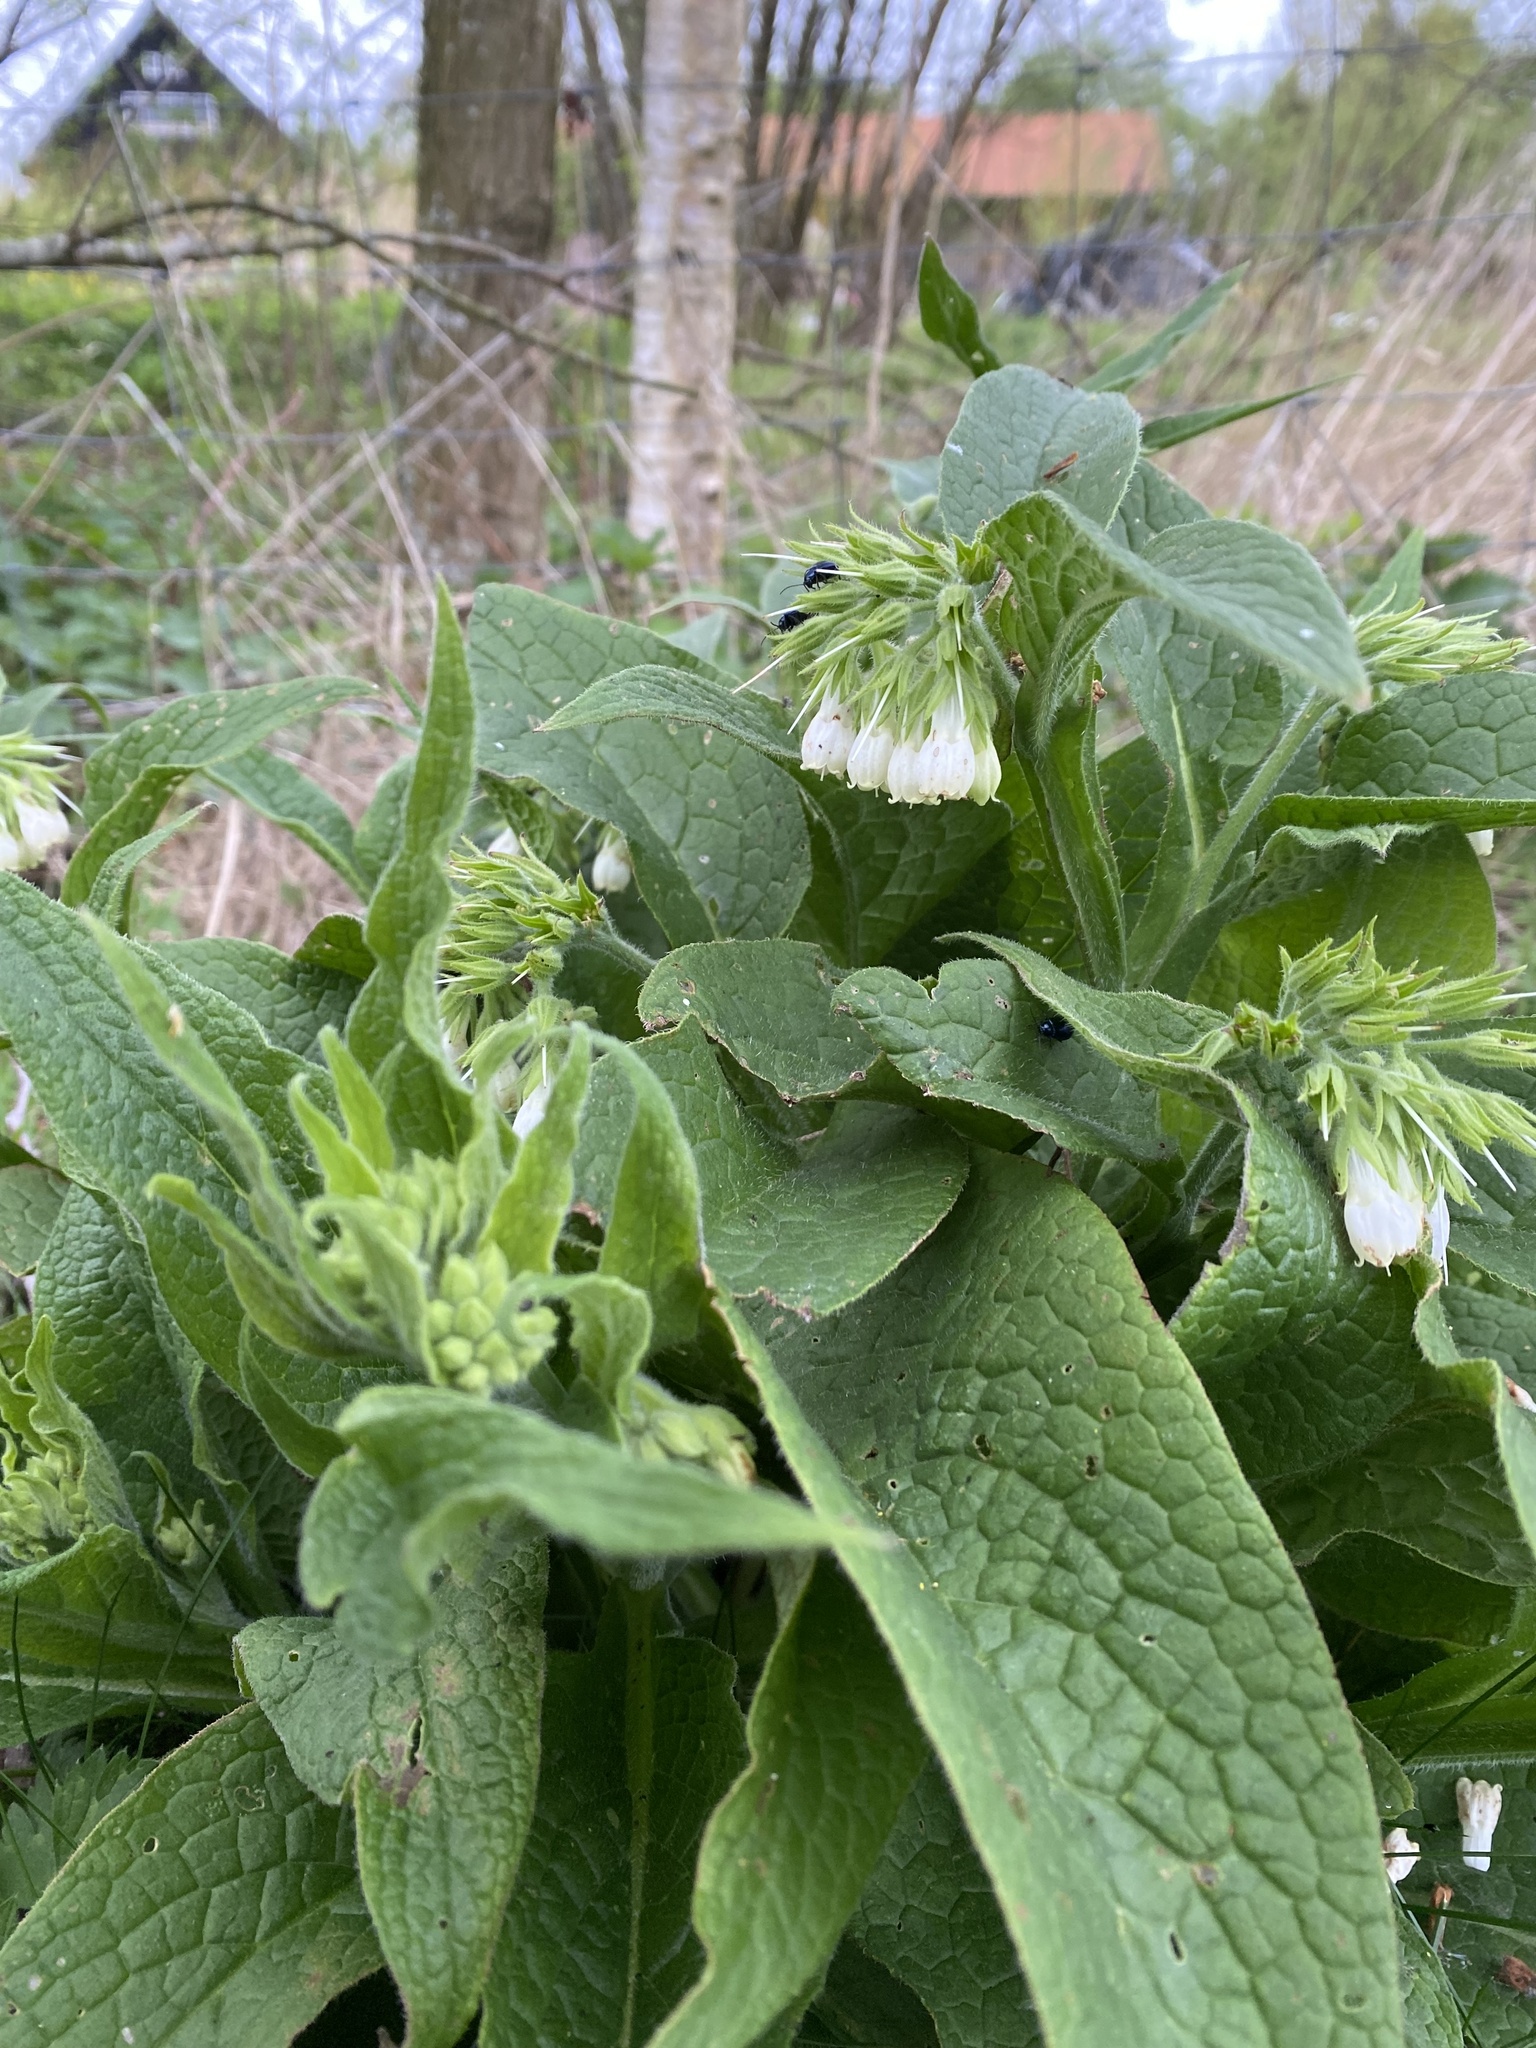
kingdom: Plantae
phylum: Tracheophyta
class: Magnoliopsida
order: Boraginales
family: Boraginaceae
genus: Symphytum
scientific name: Symphytum officinale
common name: Common comfrey
